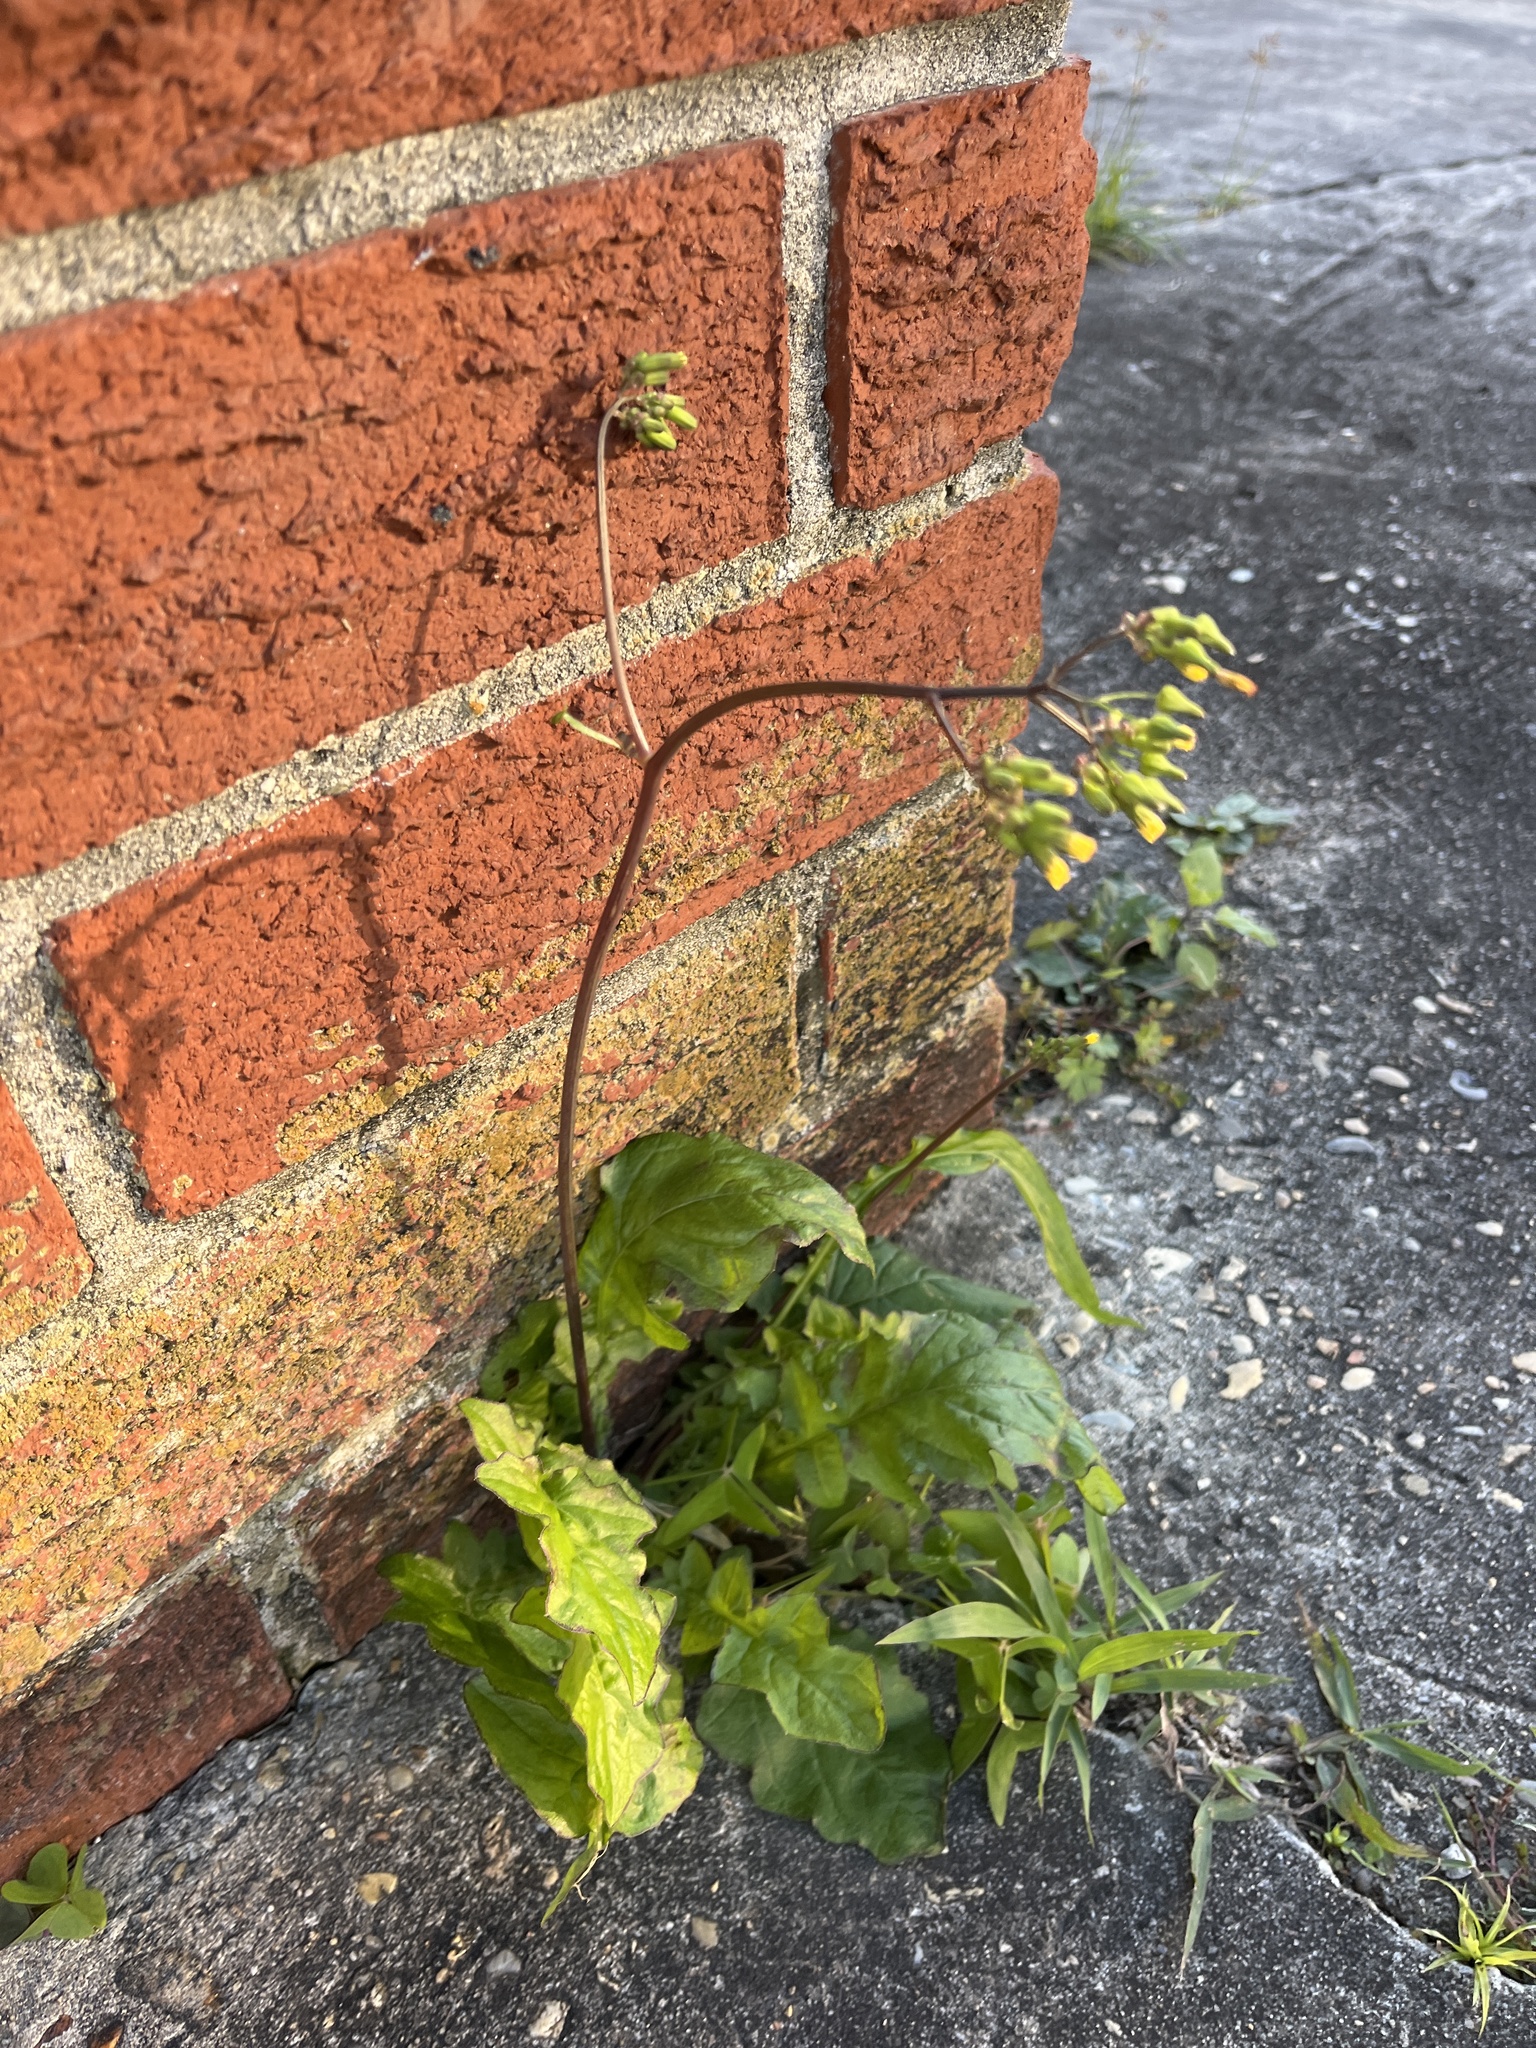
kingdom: Plantae
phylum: Tracheophyta
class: Magnoliopsida
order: Asterales
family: Asteraceae
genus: Youngia
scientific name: Youngia japonica
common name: Oriental false hawksbeard
